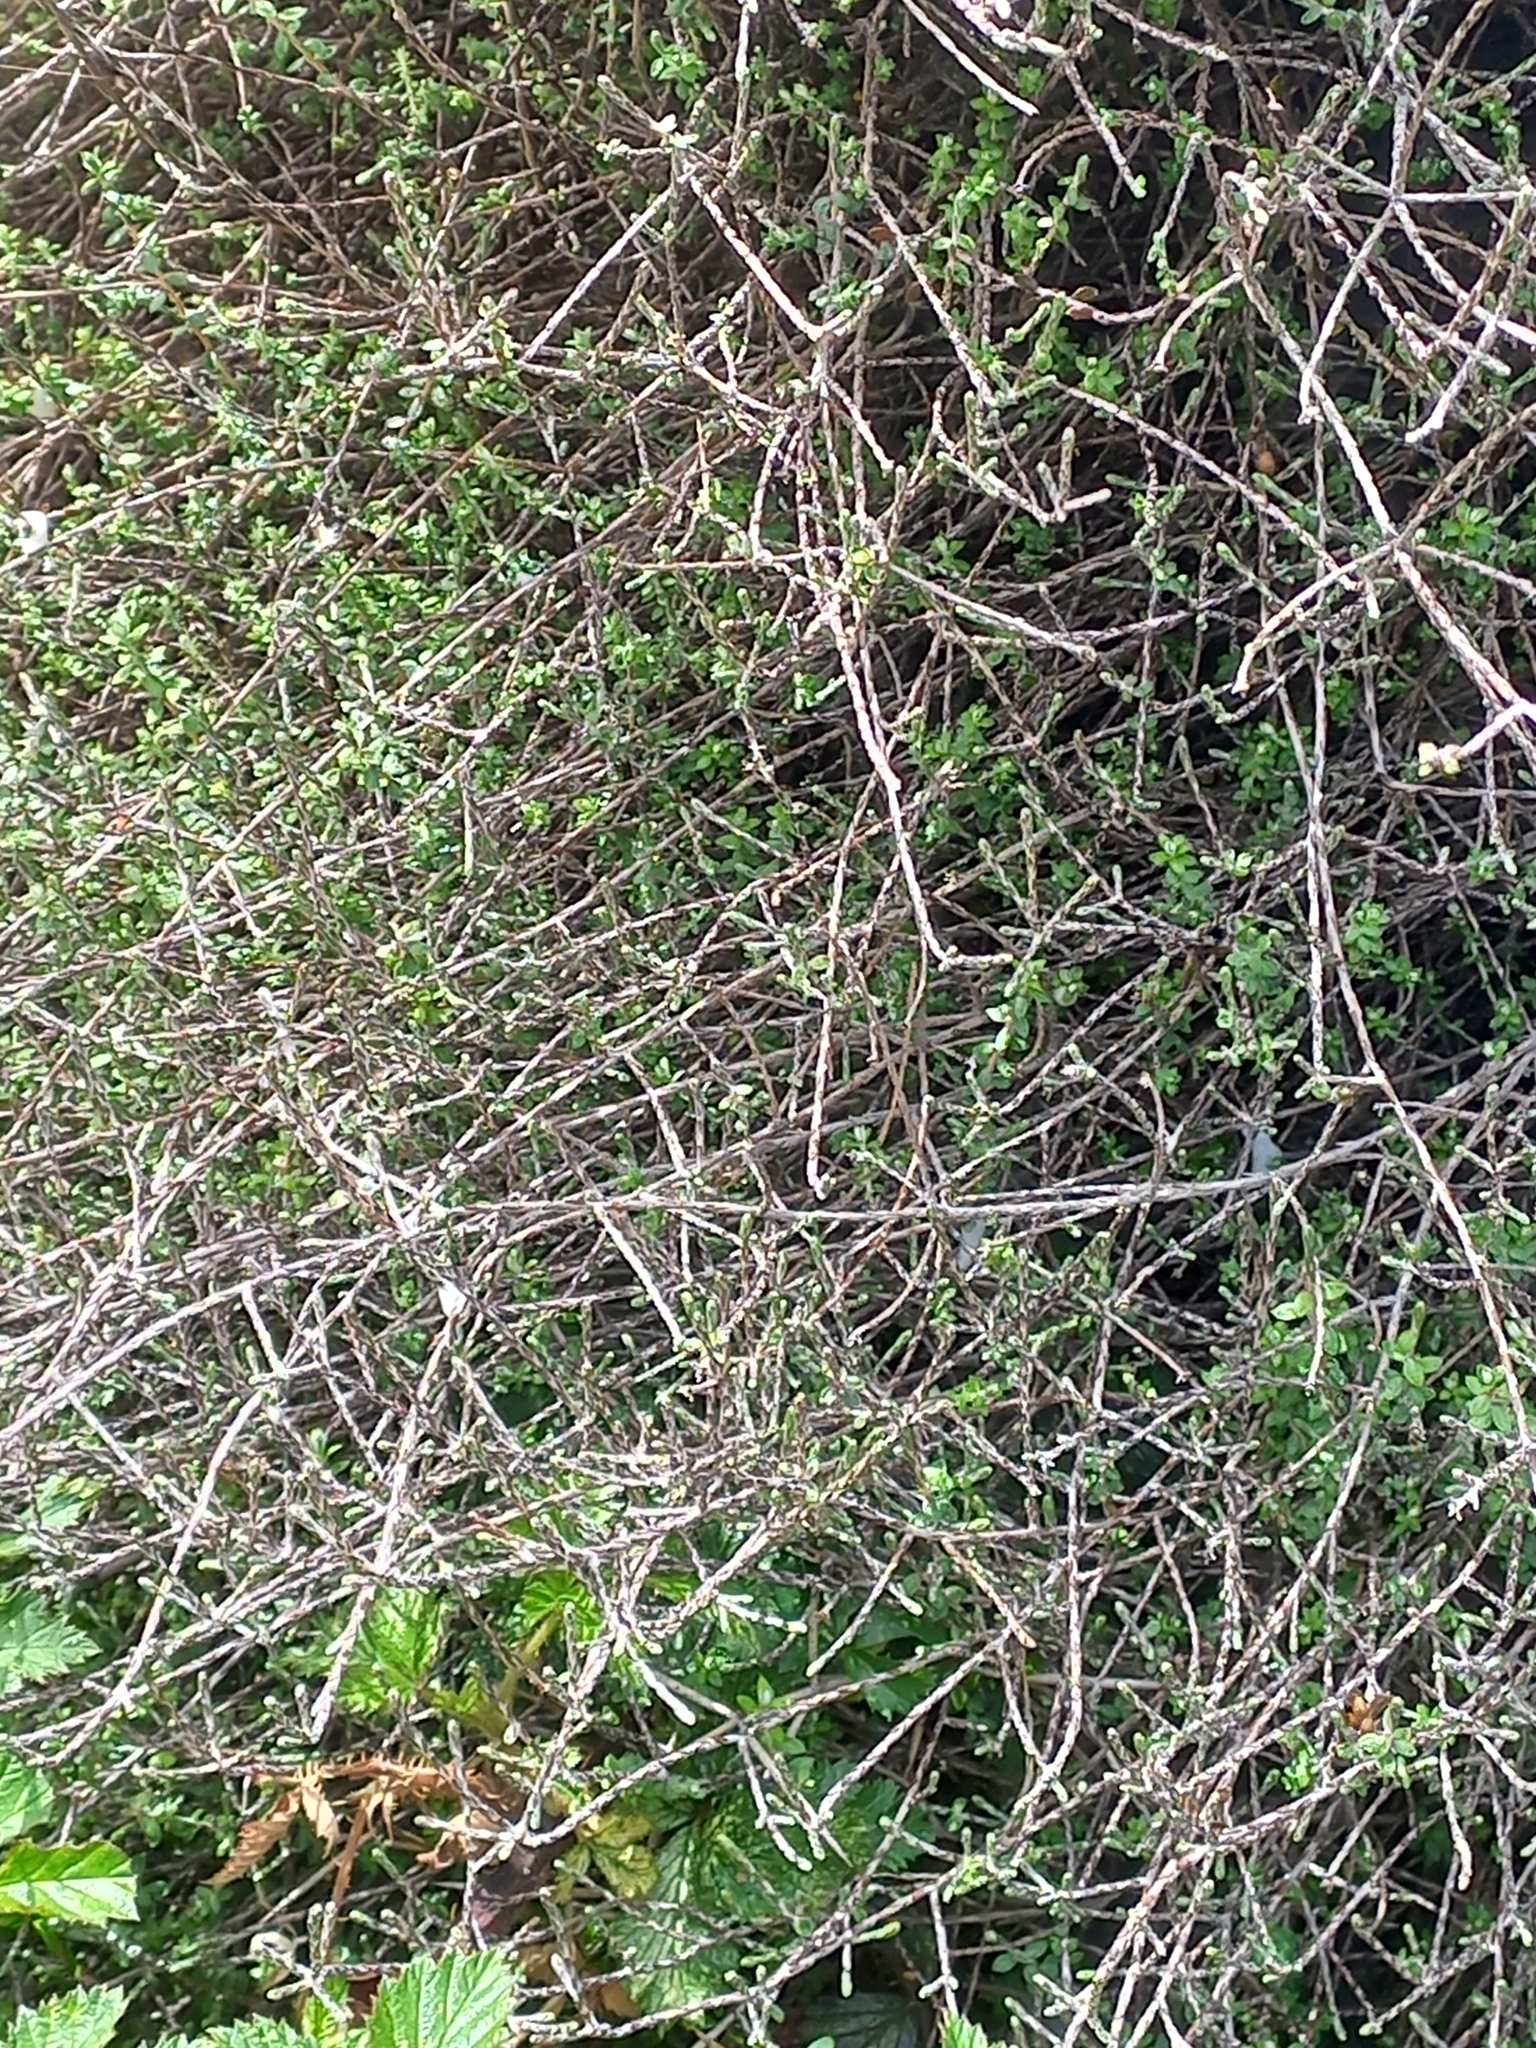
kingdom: Plantae
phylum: Tracheophyta
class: Magnoliopsida
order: Asterales
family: Asteraceae
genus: Ozothamnus
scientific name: Ozothamnus dimorphus
